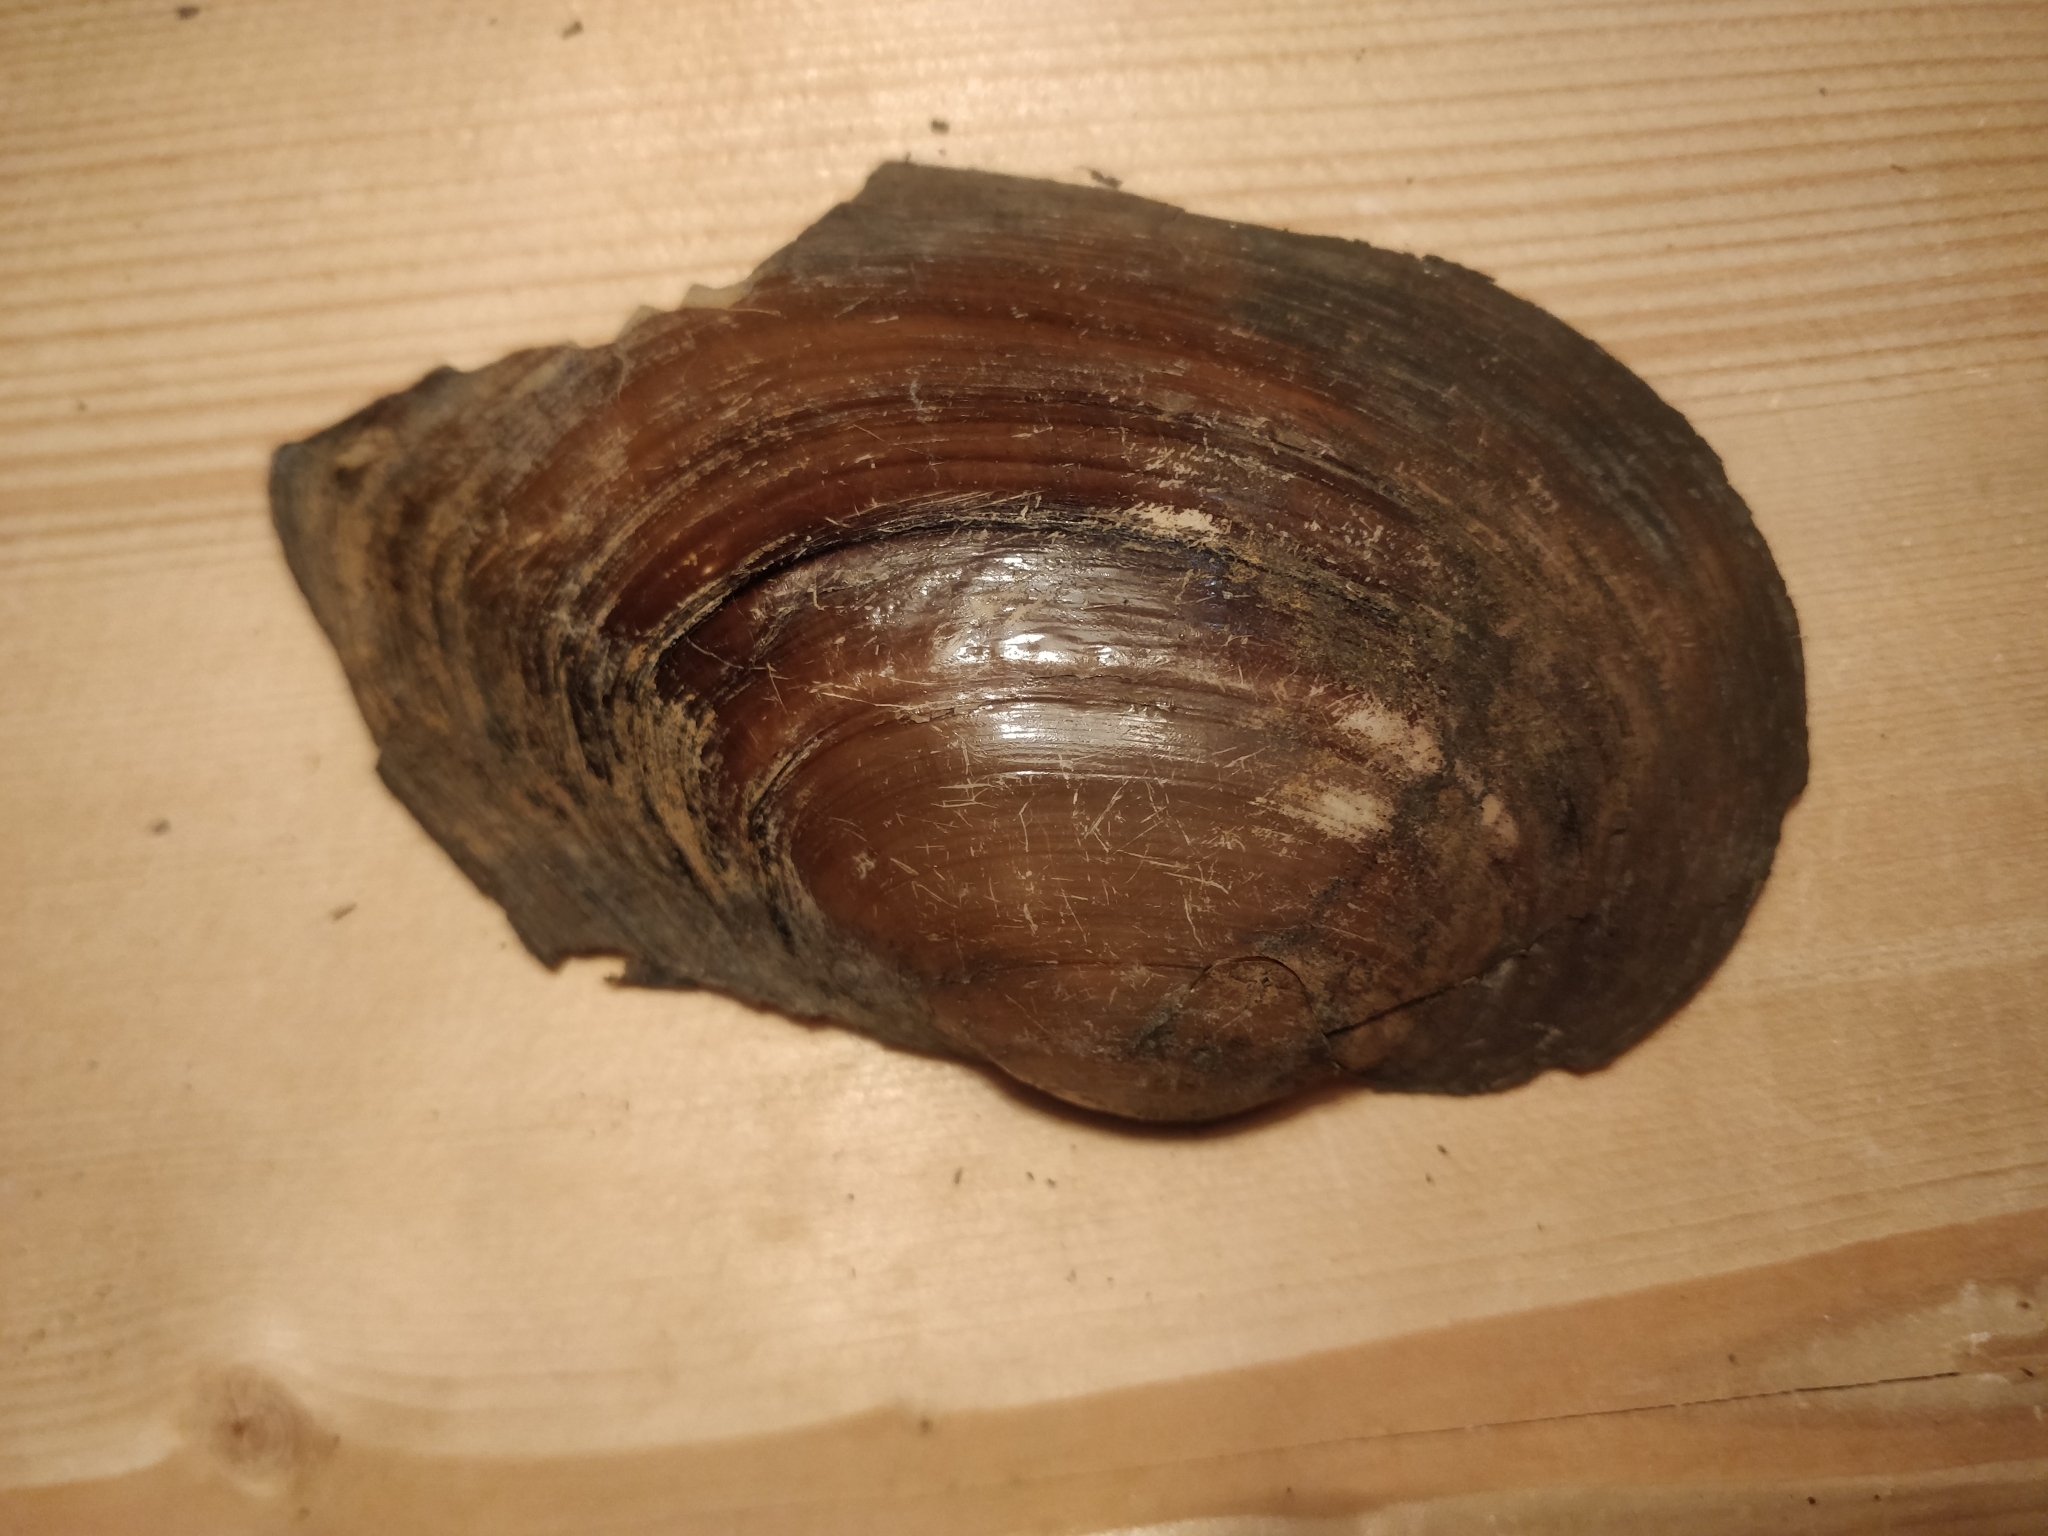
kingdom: Animalia
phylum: Mollusca
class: Bivalvia
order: Unionida
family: Unionidae
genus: Pyganodon
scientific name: Pyganodon grandis
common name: Giant floater
